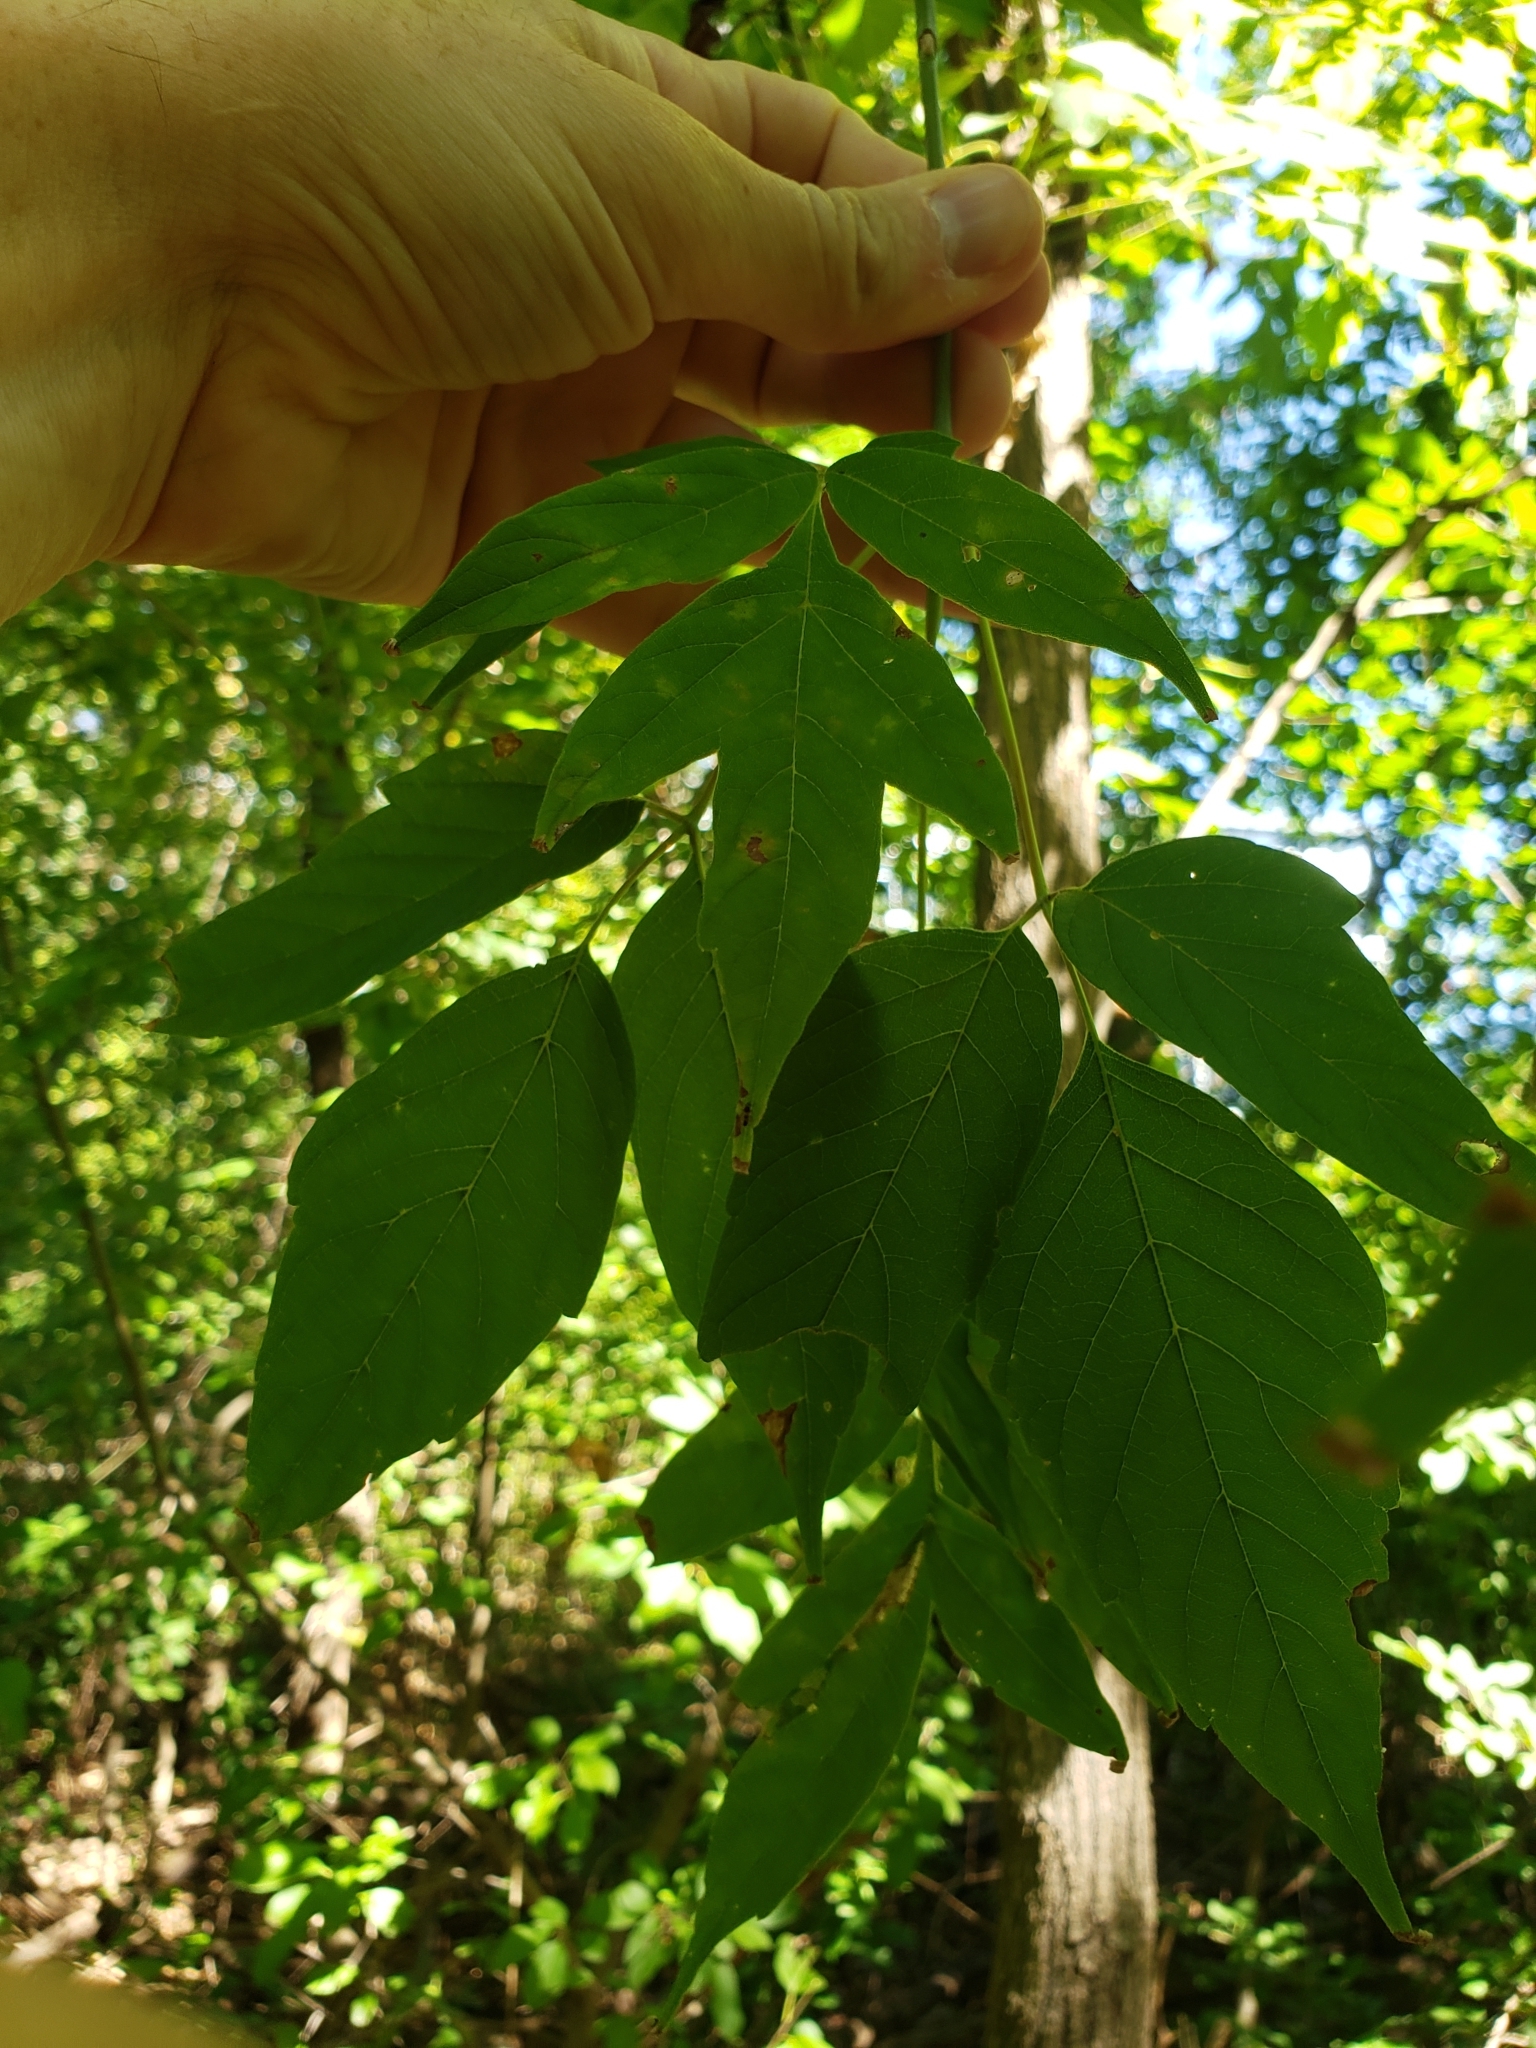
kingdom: Plantae
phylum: Tracheophyta
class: Magnoliopsida
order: Sapindales
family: Sapindaceae
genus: Acer
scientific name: Acer negundo
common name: Ashleaf maple
